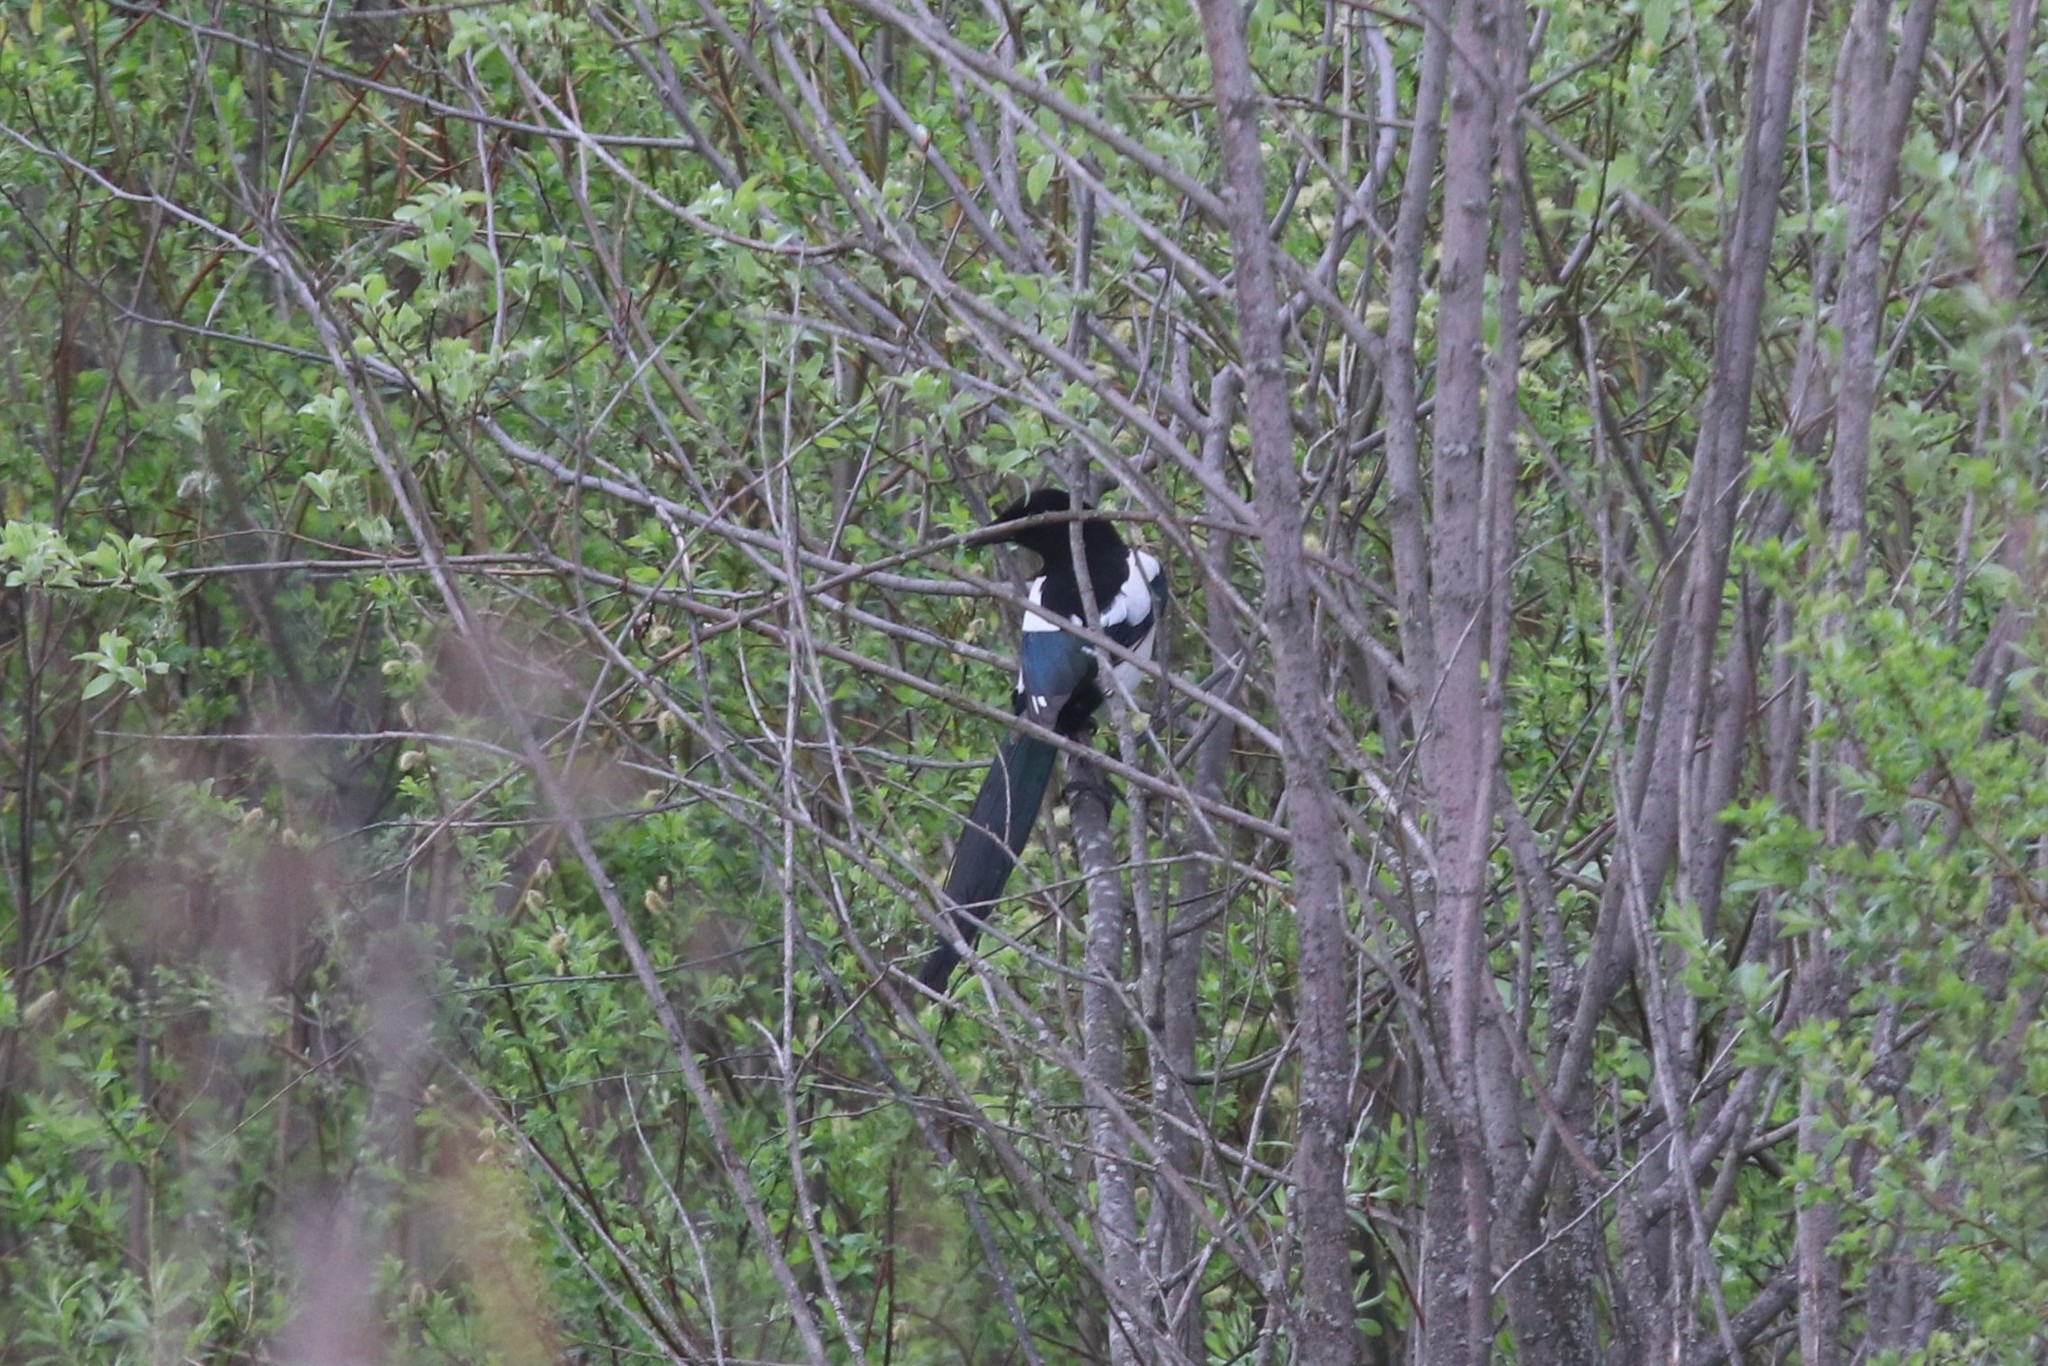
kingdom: Animalia
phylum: Chordata
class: Aves
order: Passeriformes
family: Corvidae
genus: Pica
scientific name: Pica pica
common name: Eurasian magpie
